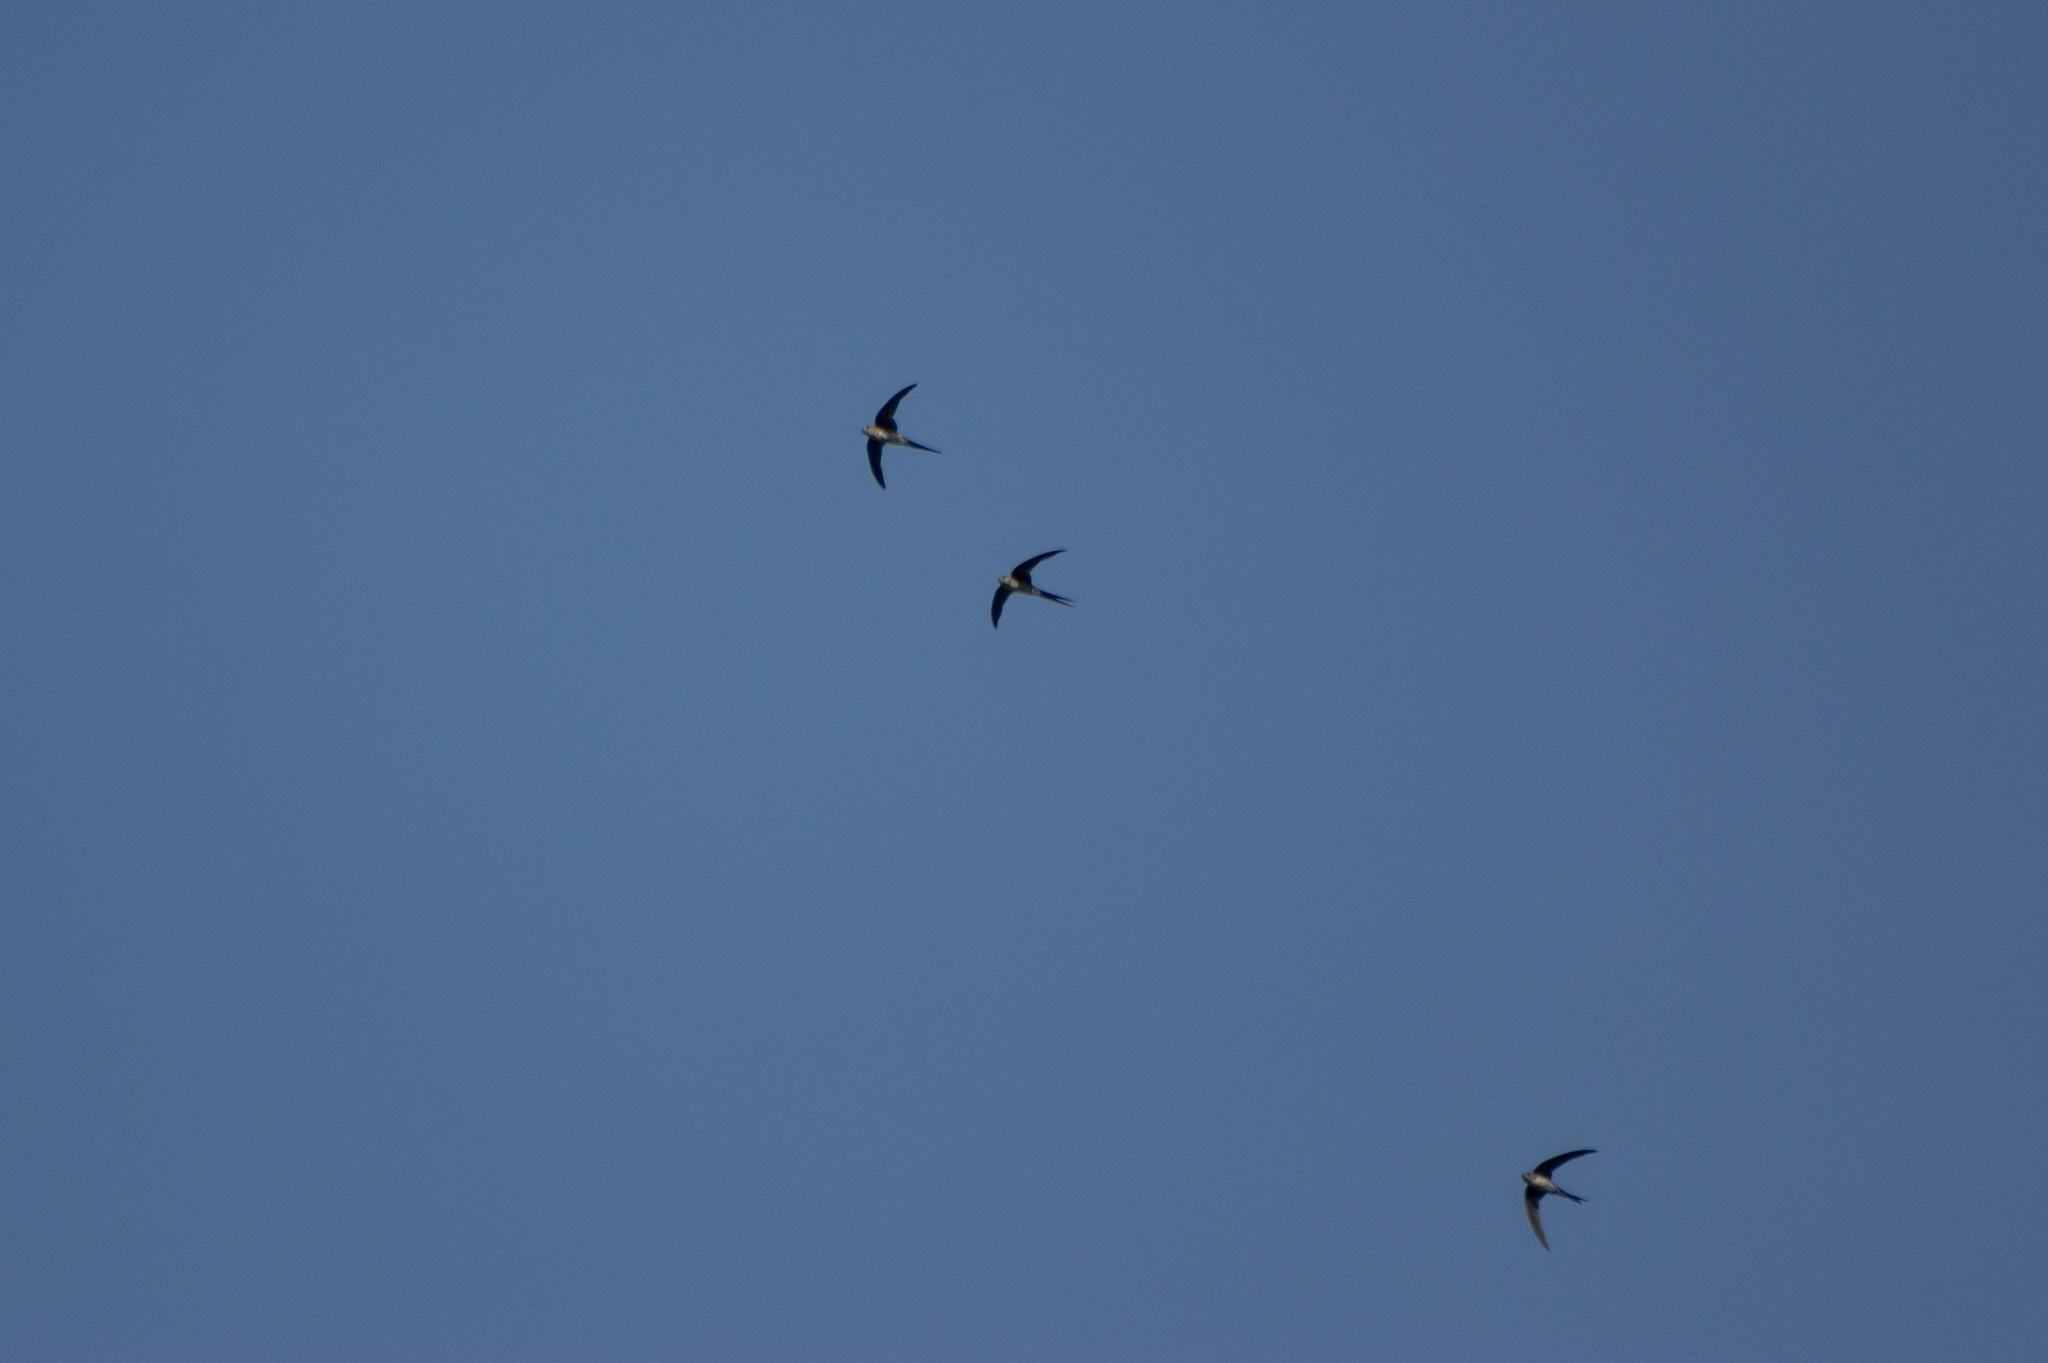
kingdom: Animalia
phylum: Chordata
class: Aves
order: Apodiformes
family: Apodidae
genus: Tachornis
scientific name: Tachornis squamata
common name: Neotropical palm swift
